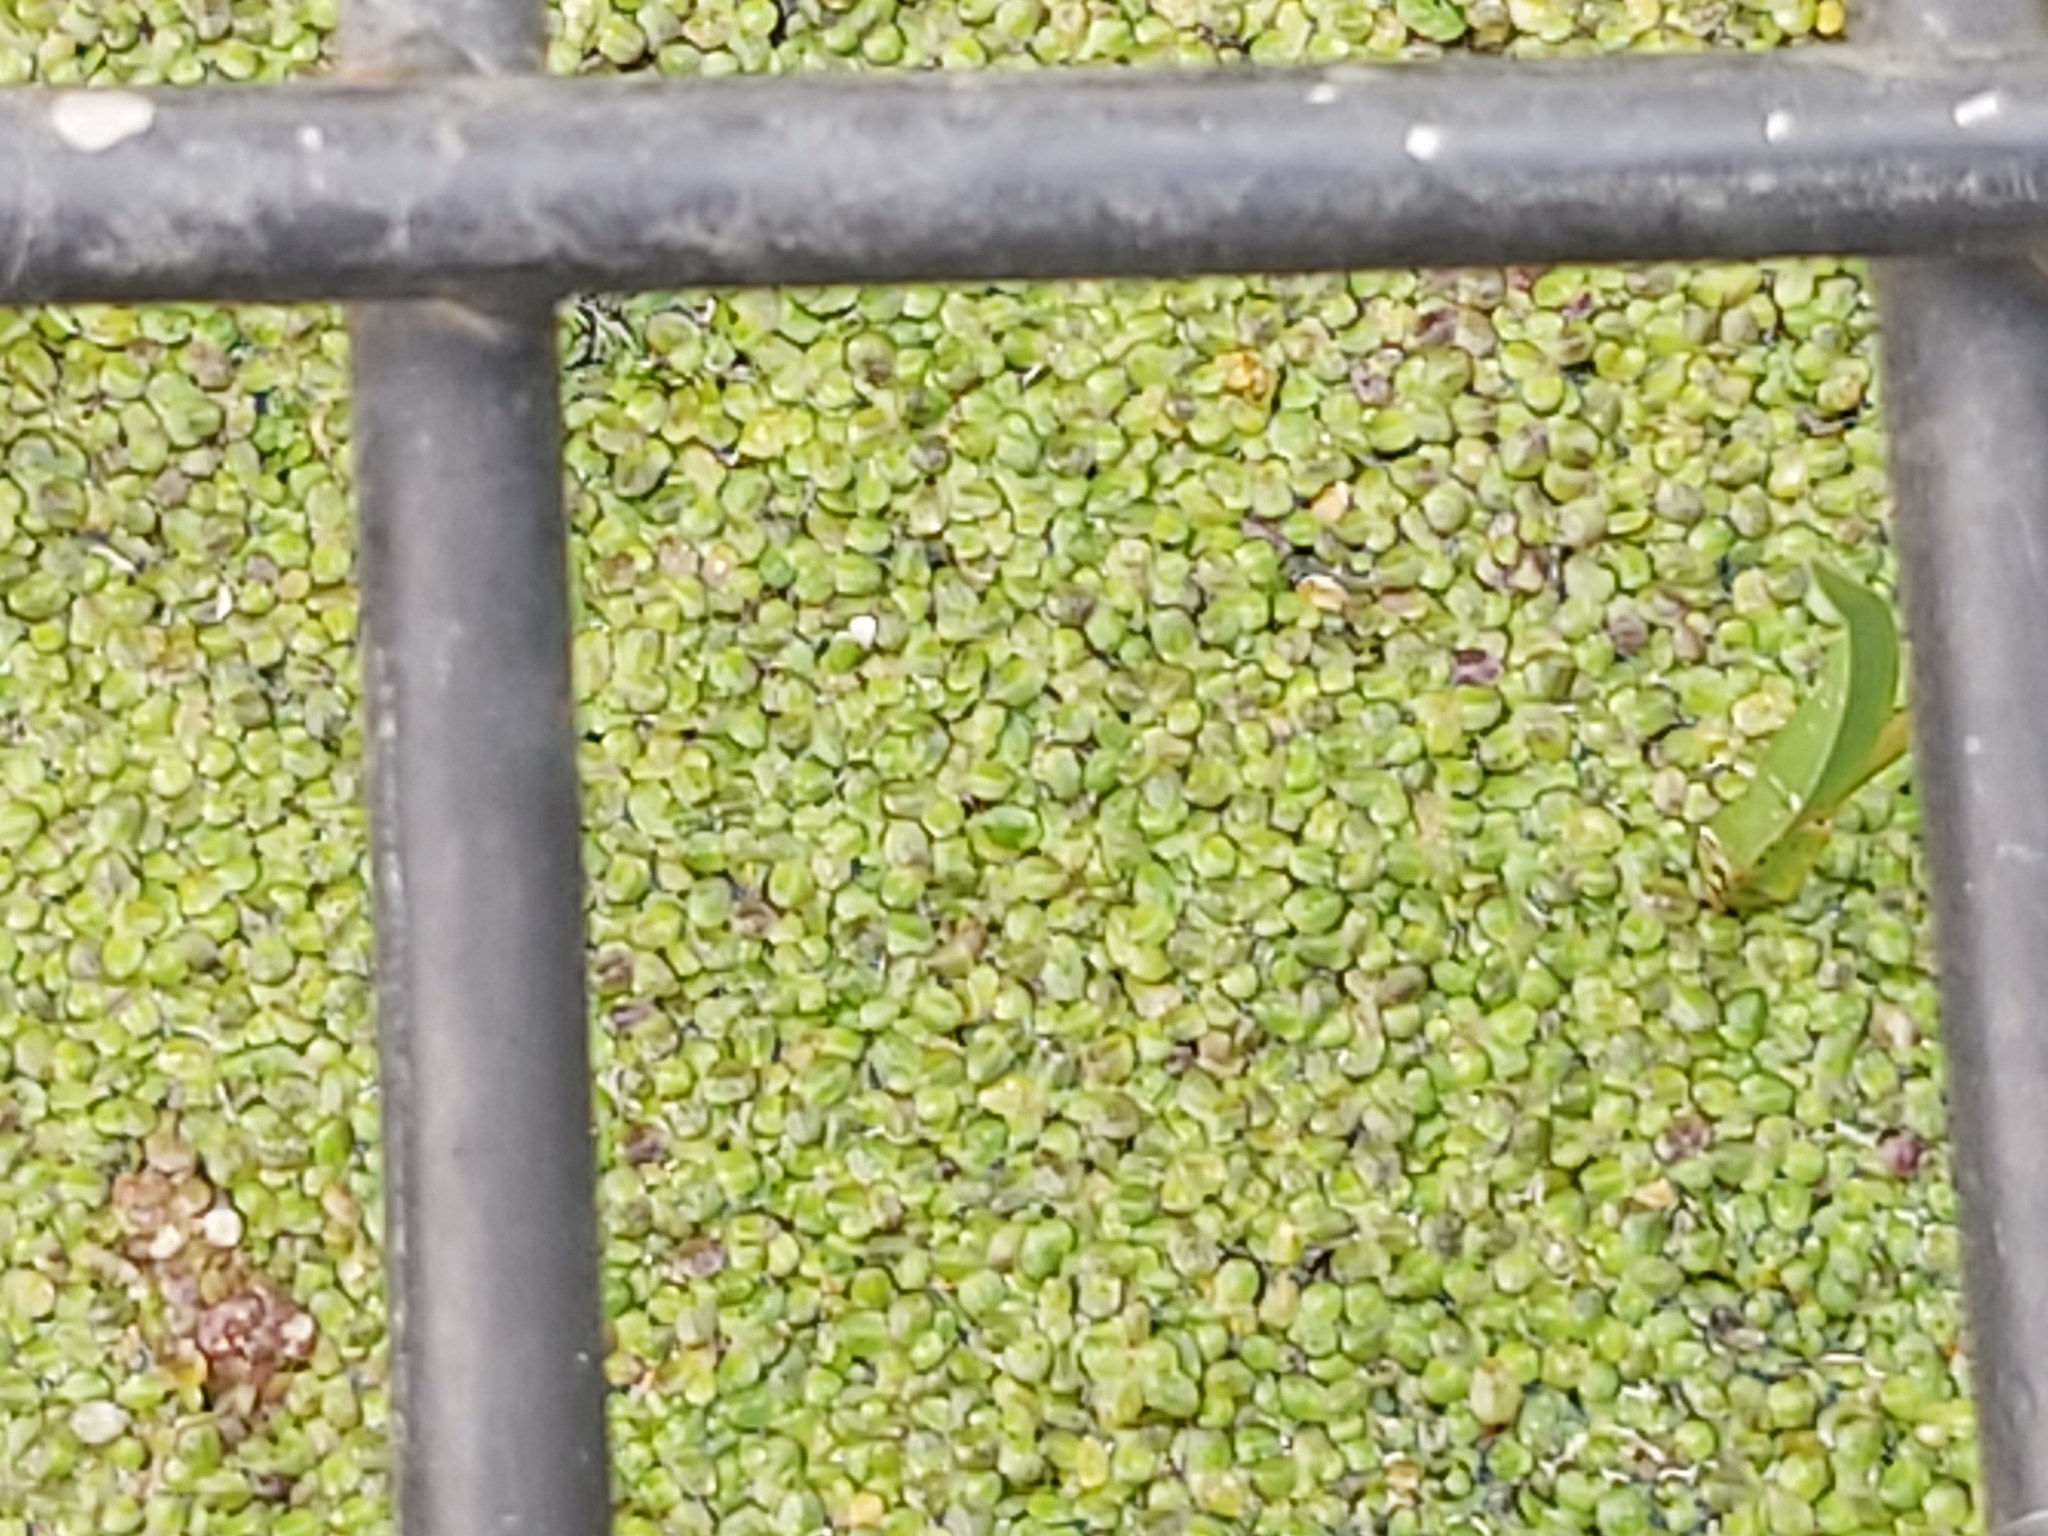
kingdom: Plantae
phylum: Tracheophyta
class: Liliopsida
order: Alismatales
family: Araceae
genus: Lemna
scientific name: Lemna minor
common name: Common duckweed
